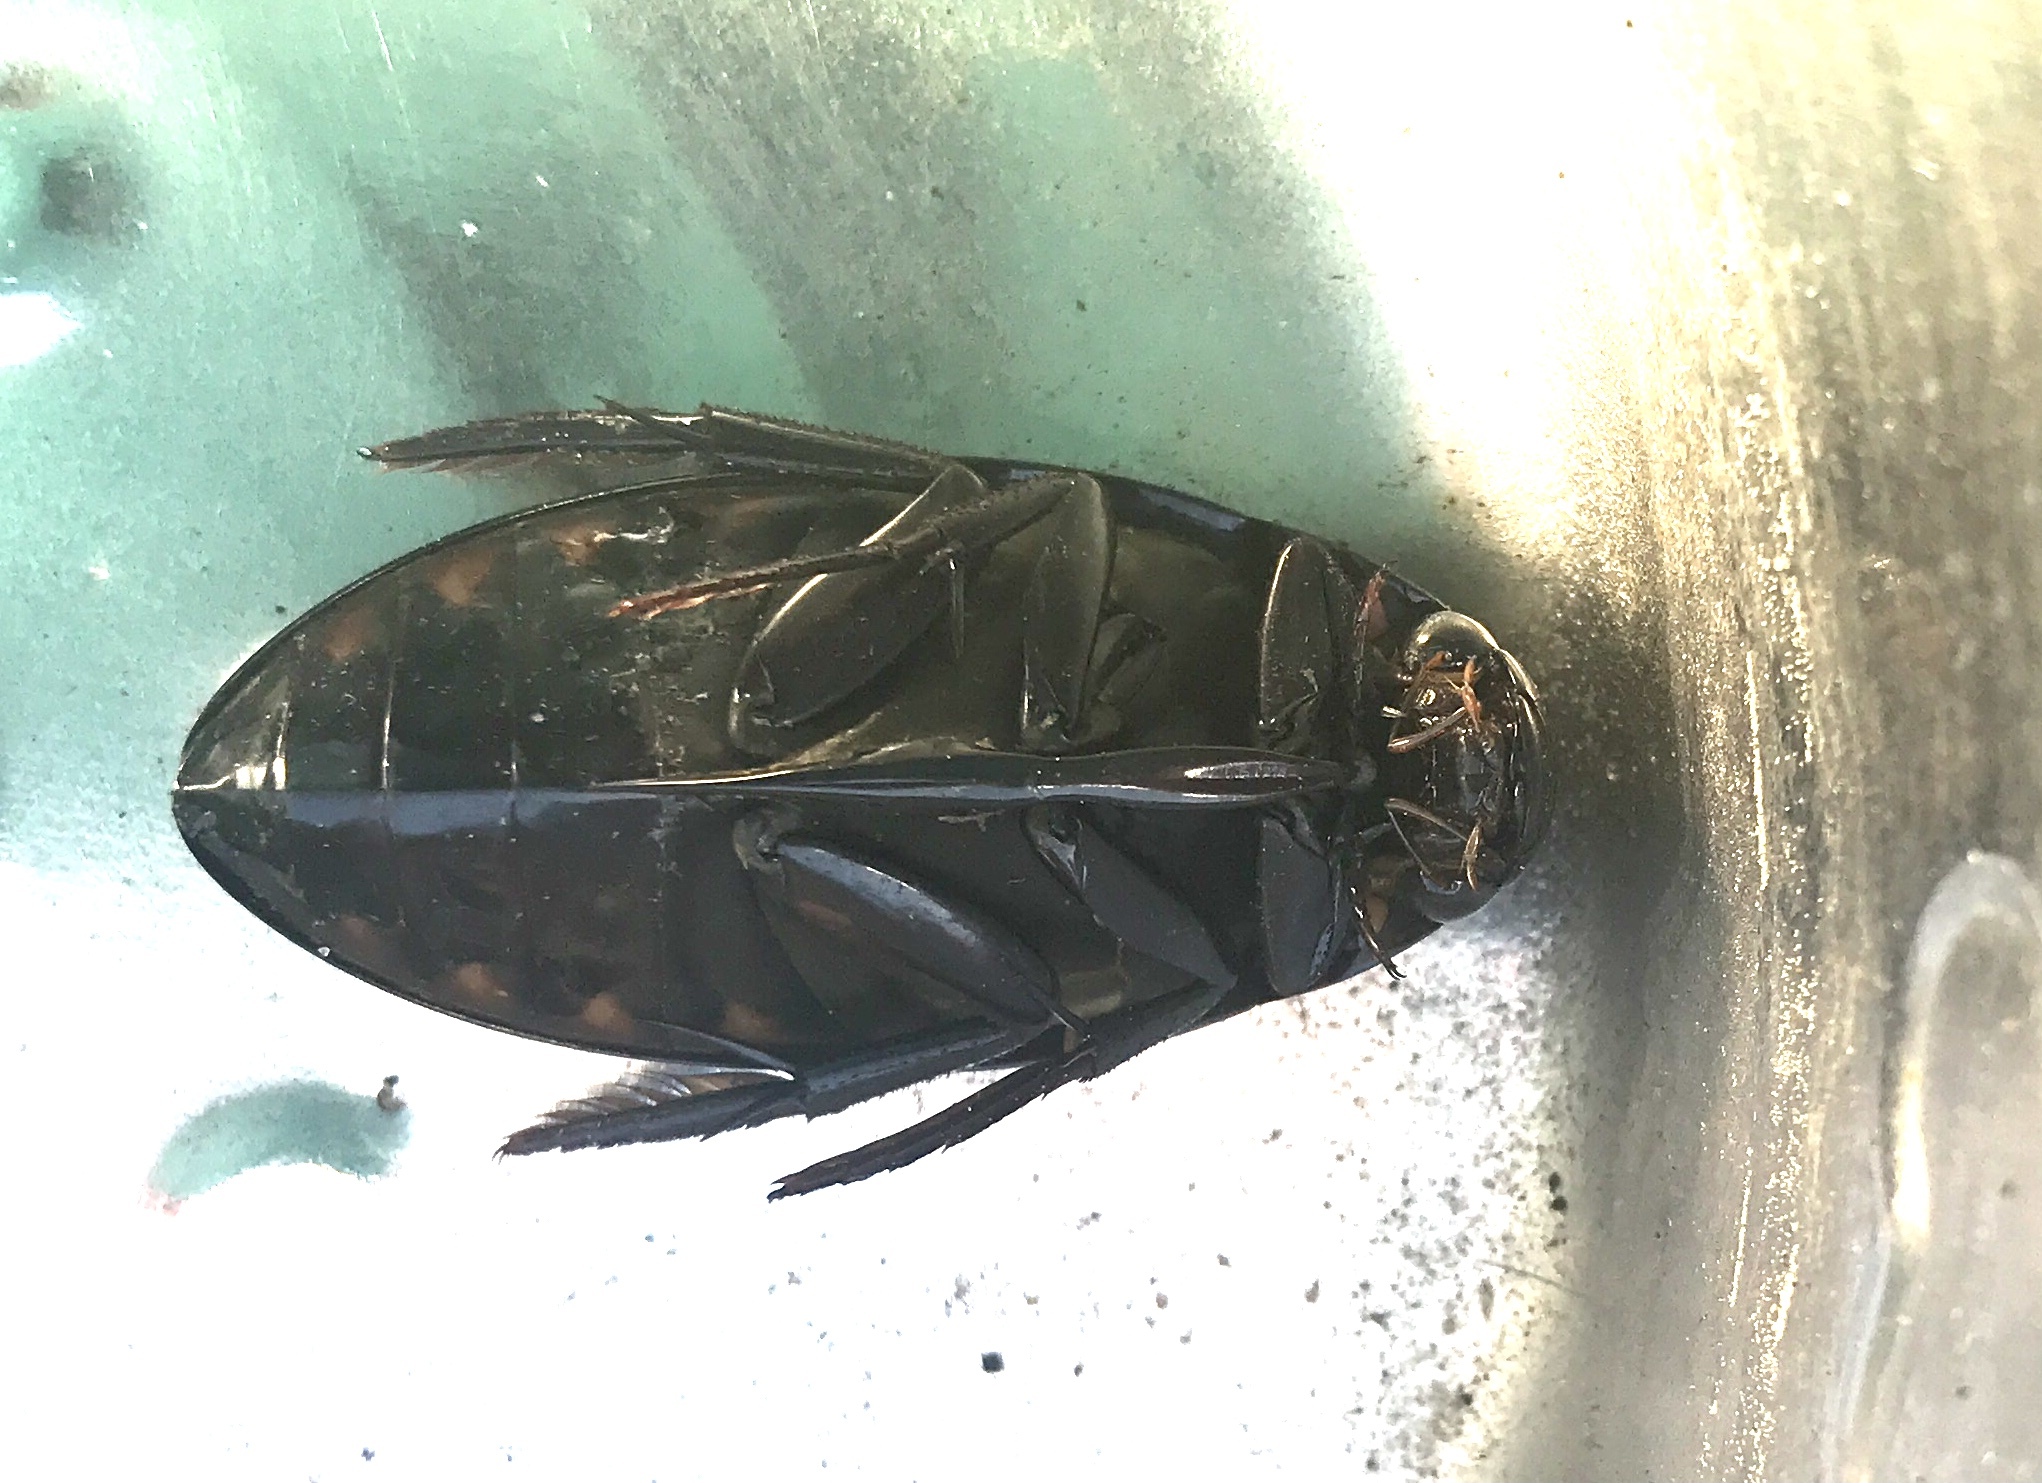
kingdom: Animalia
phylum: Arthropoda
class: Insecta
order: Coleoptera
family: Hydrophilidae
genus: Hydrophilus
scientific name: Hydrophilus triangularis
